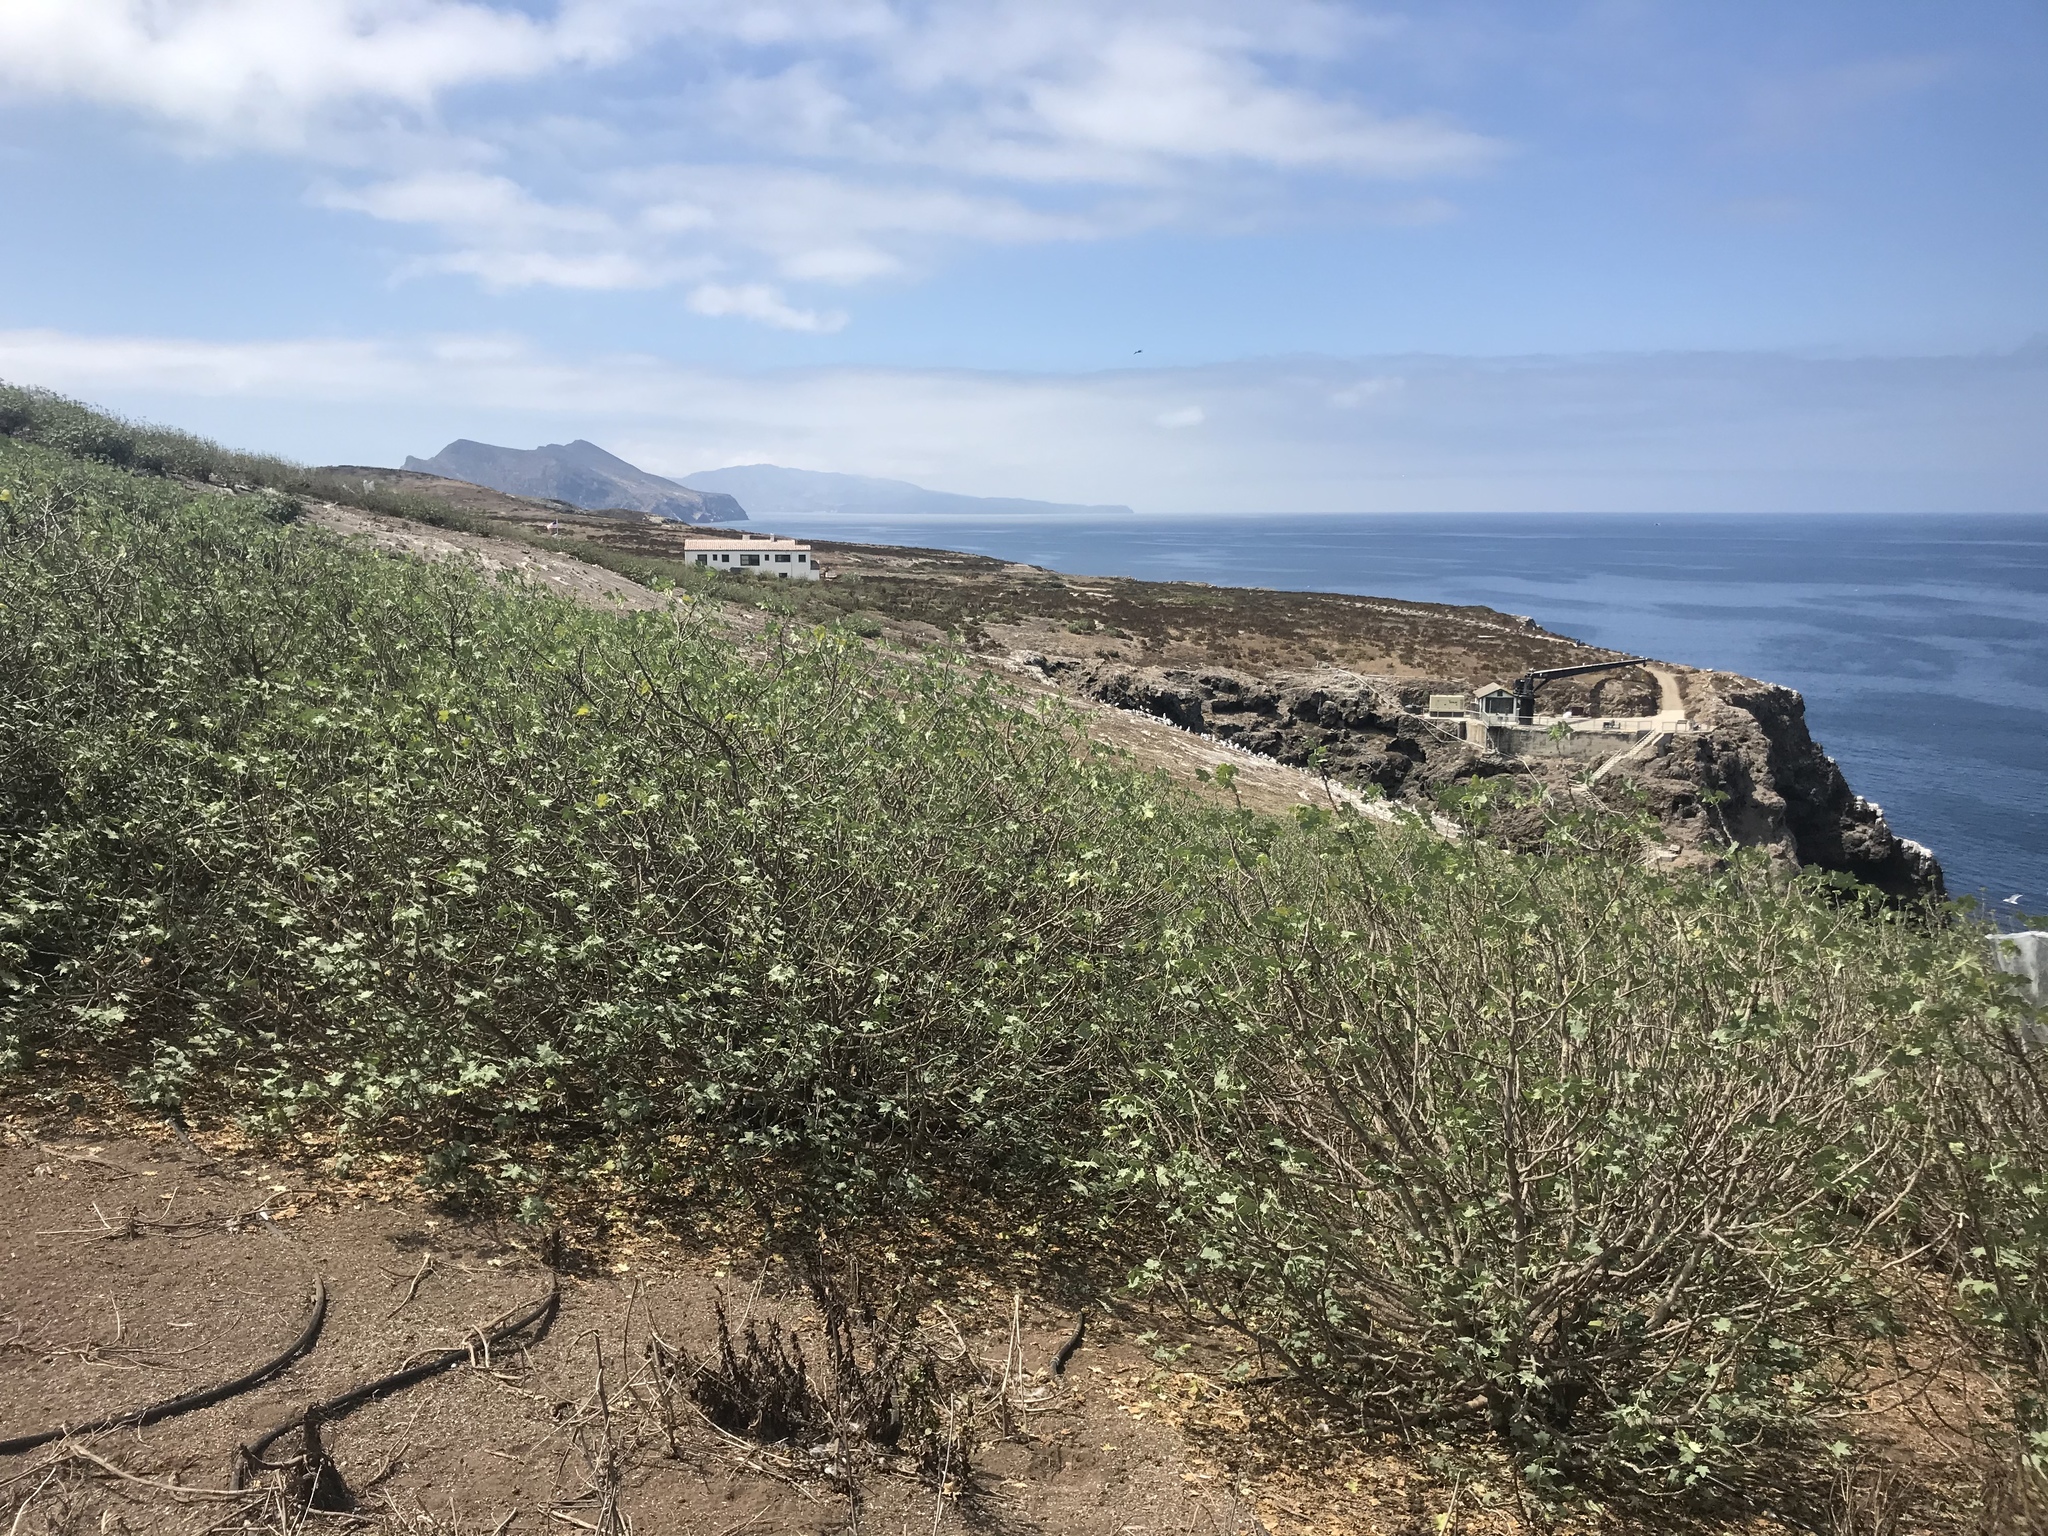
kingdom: Plantae
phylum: Tracheophyta
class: Magnoliopsida
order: Malvales
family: Malvaceae
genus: Malva
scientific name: Malva assurgentiflora
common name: Island mallow
